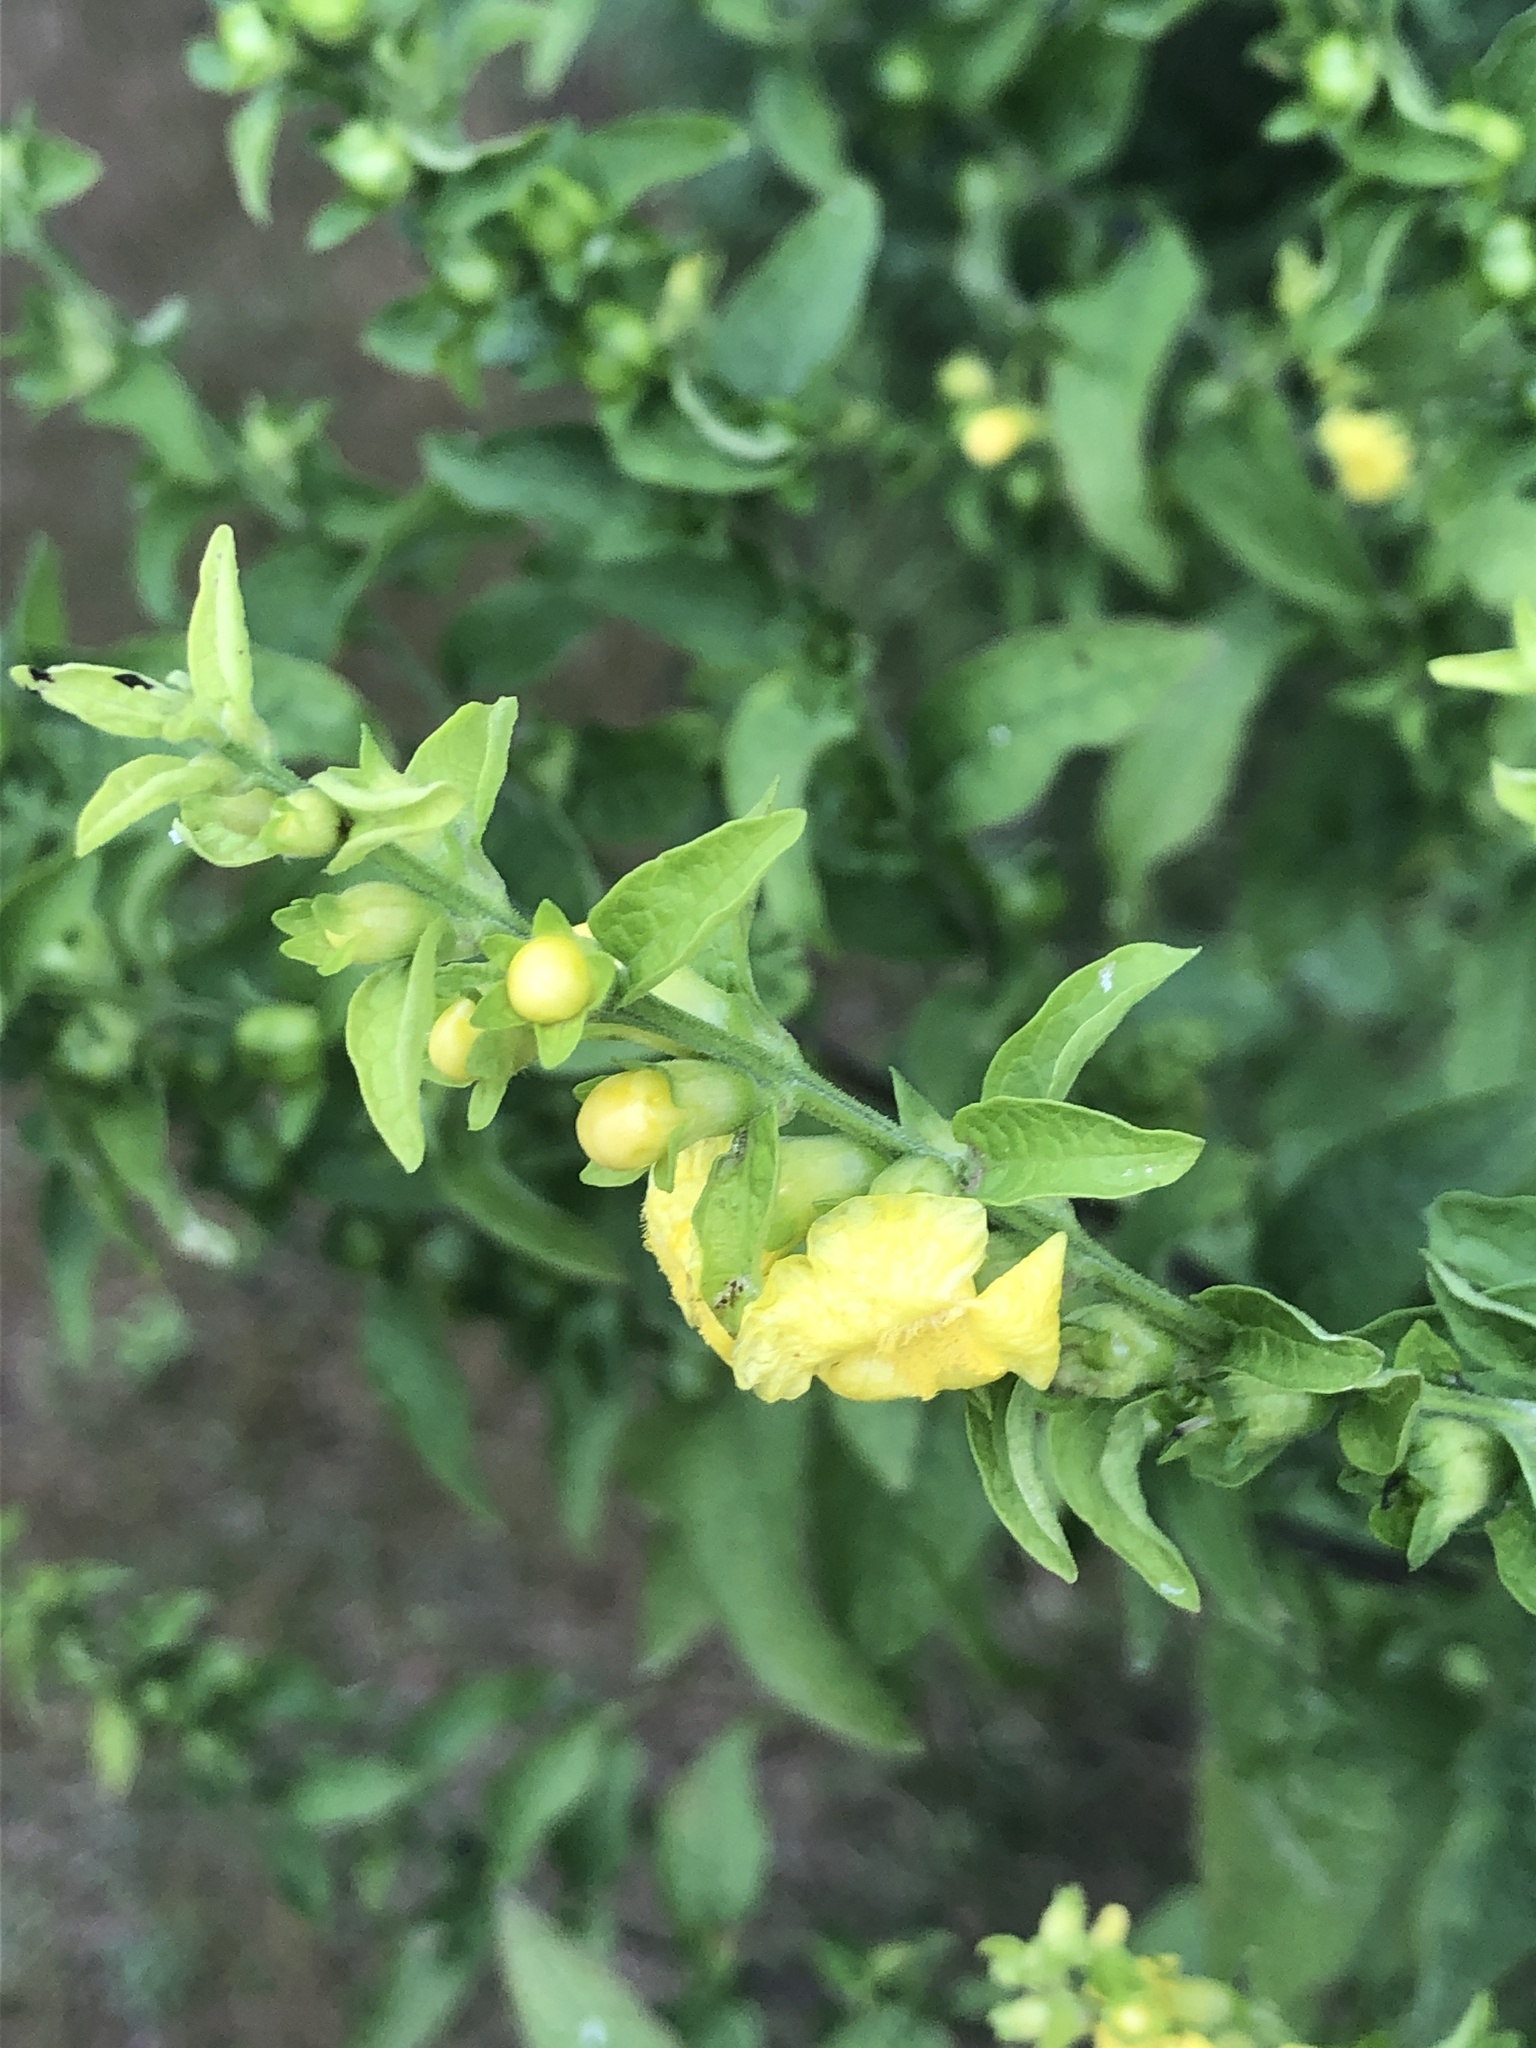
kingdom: Plantae
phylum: Tracheophyta
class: Magnoliopsida
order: Lamiales
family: Orobanchaceae
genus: Dasistoma
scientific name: Dasistoma macrophyllum
